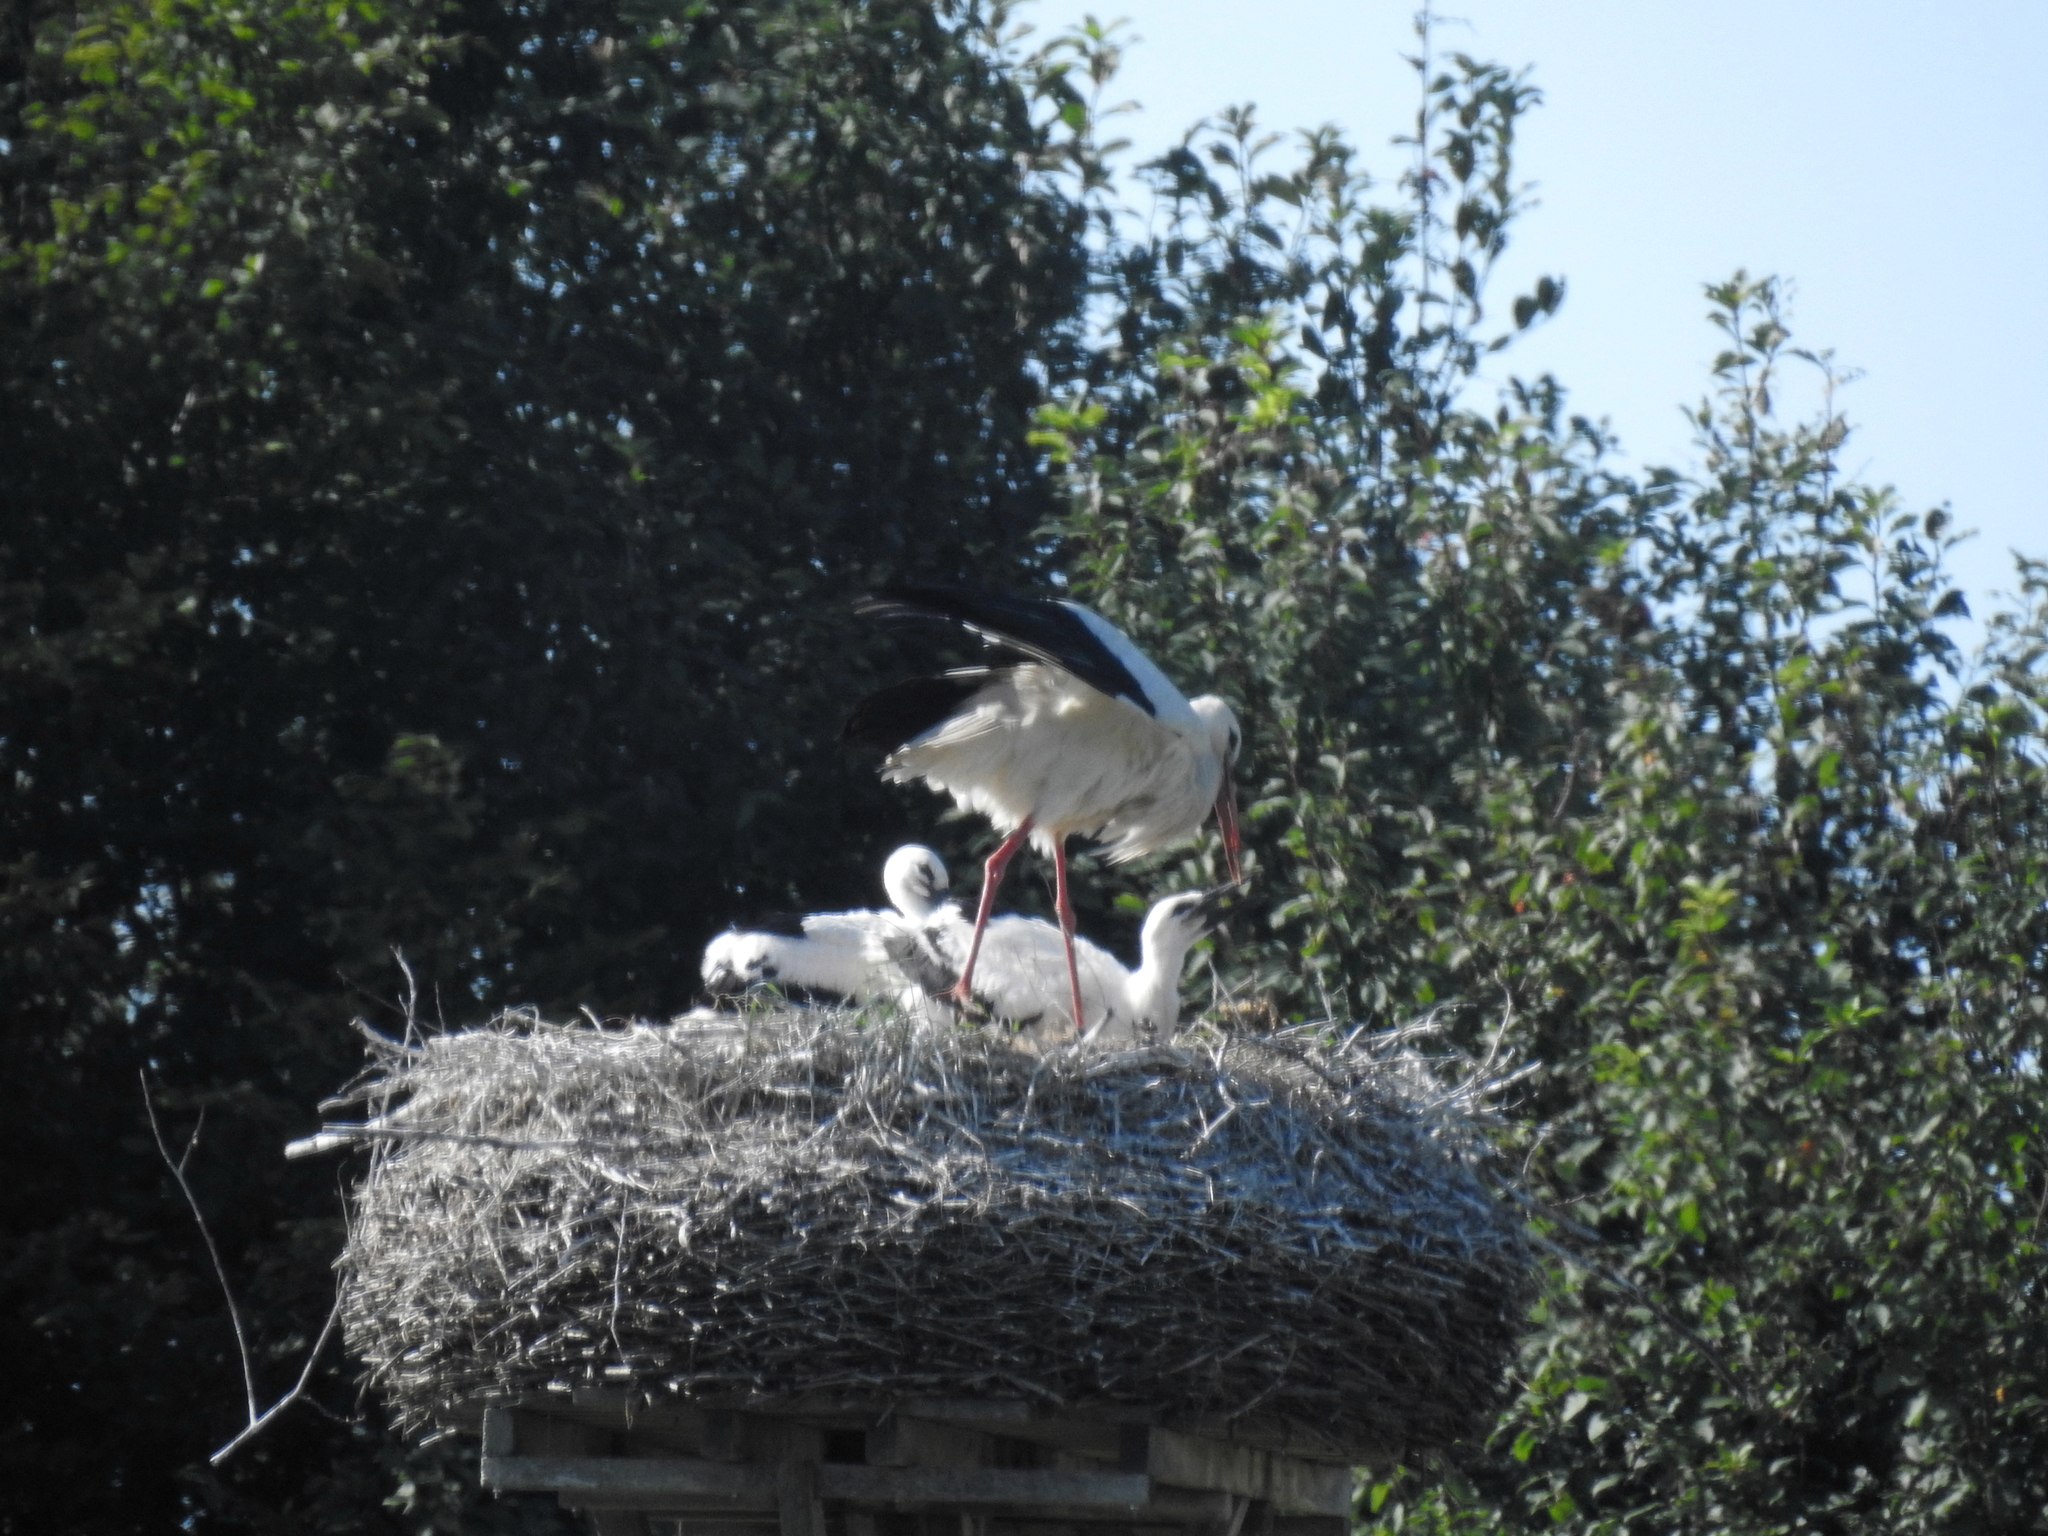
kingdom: Animalia
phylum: Chordata
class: Aves
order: Ciconiiformes
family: Ciconiidae
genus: Ciconia
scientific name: Ciconia ciconia
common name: White stork
